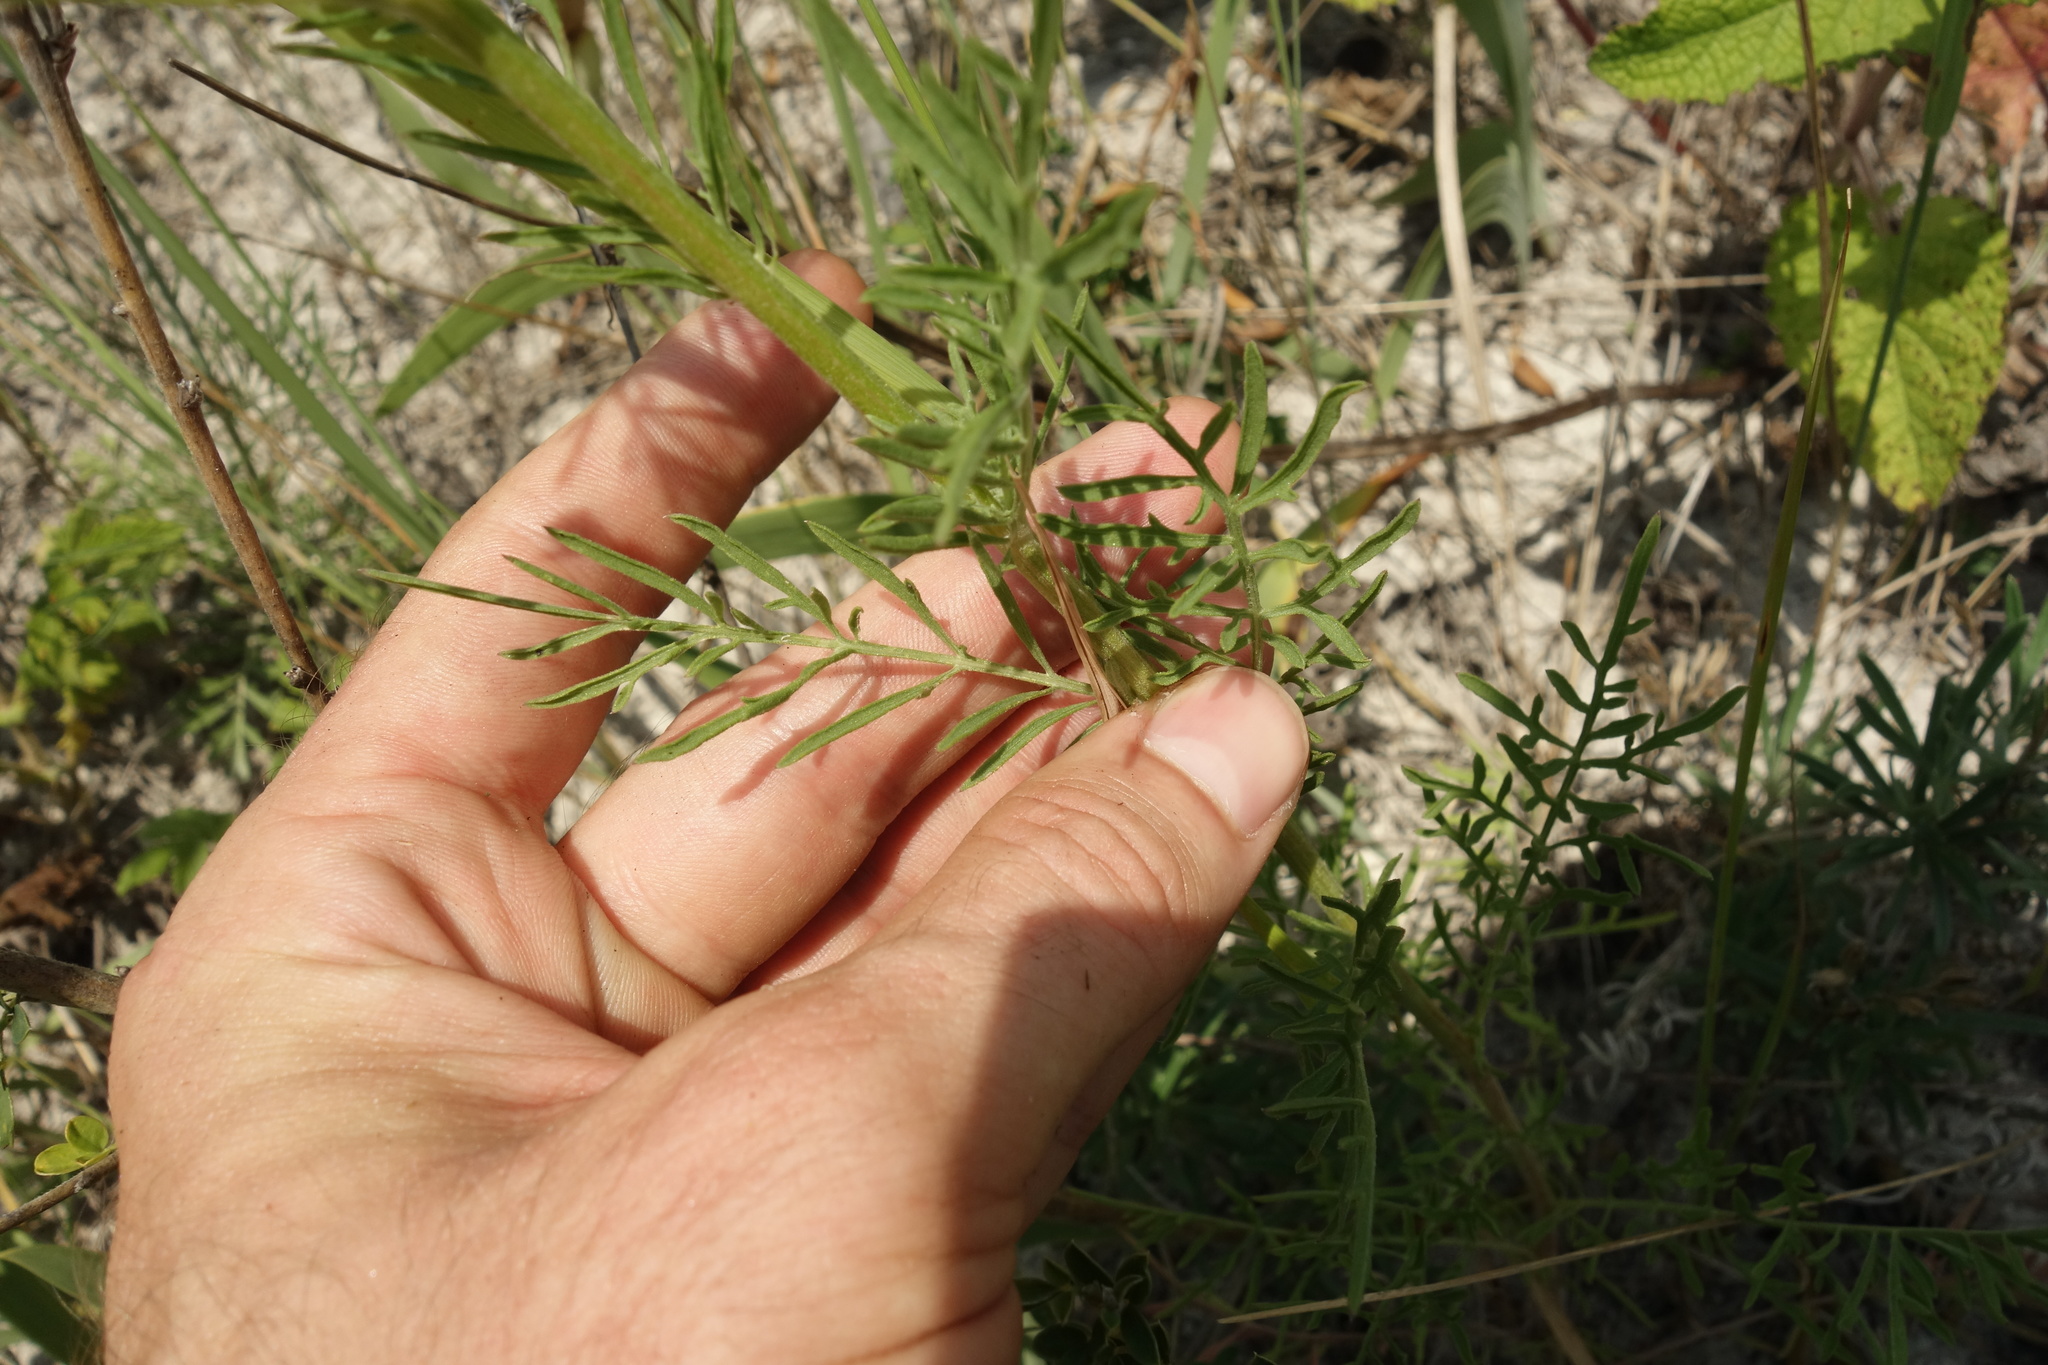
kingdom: Plantae
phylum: Tracheophyta
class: Magnoliopsida
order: Asterales
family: Asteraceae
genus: Centaurea
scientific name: Centaurea stoebe
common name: Spotted knapweed
